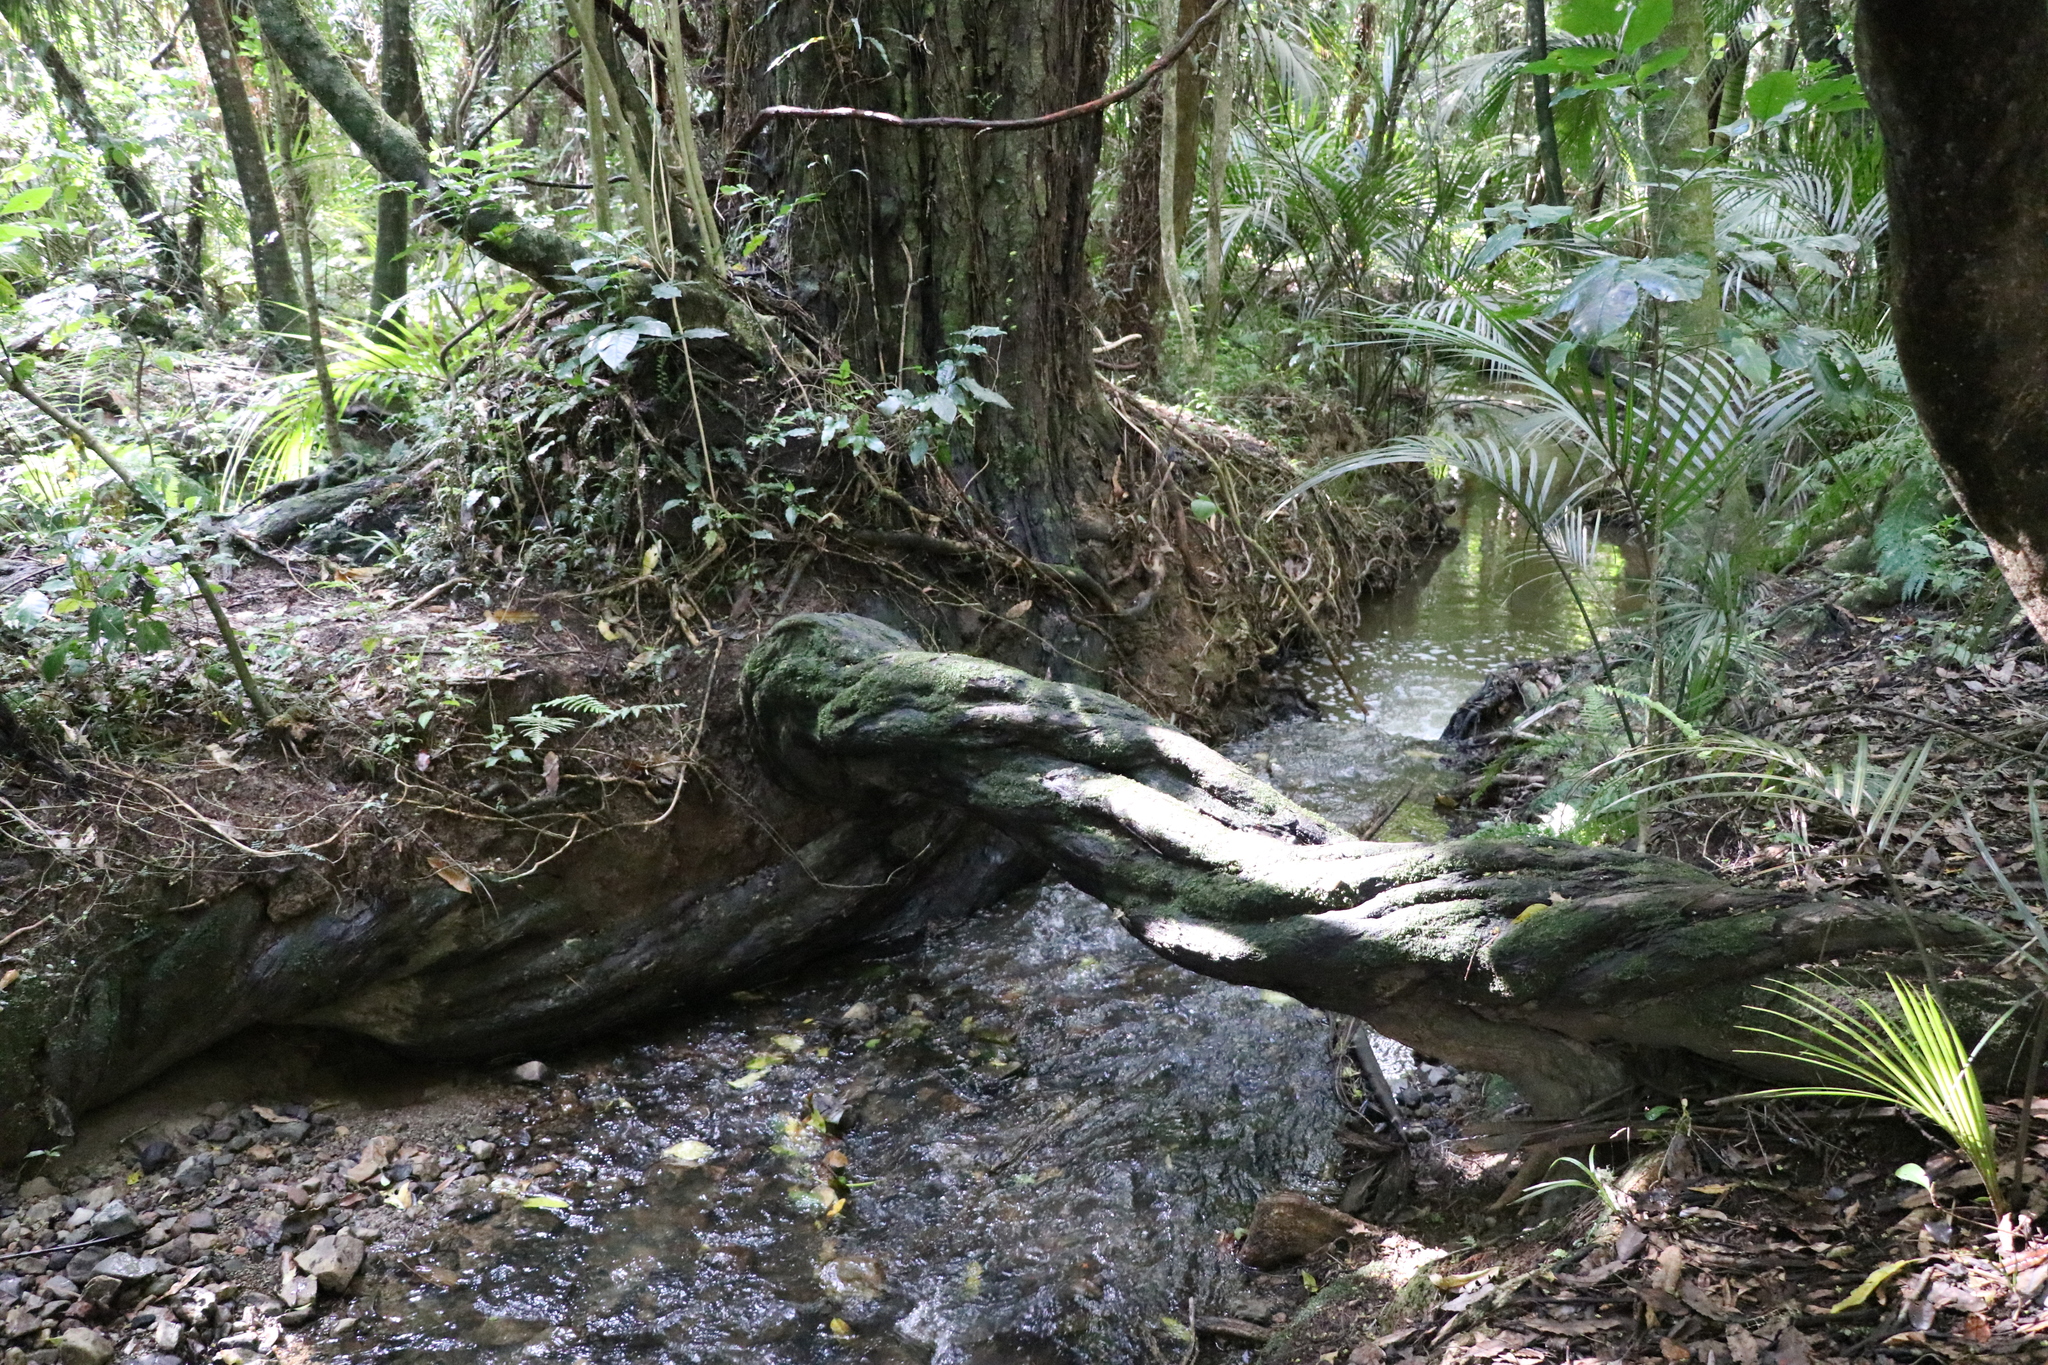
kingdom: Plantae
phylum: Tracheophyta
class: Pinopsida
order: Pinales
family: Podocarpaceae
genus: Dacrydium
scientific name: Dacrydium cupressinum
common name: Red pine
